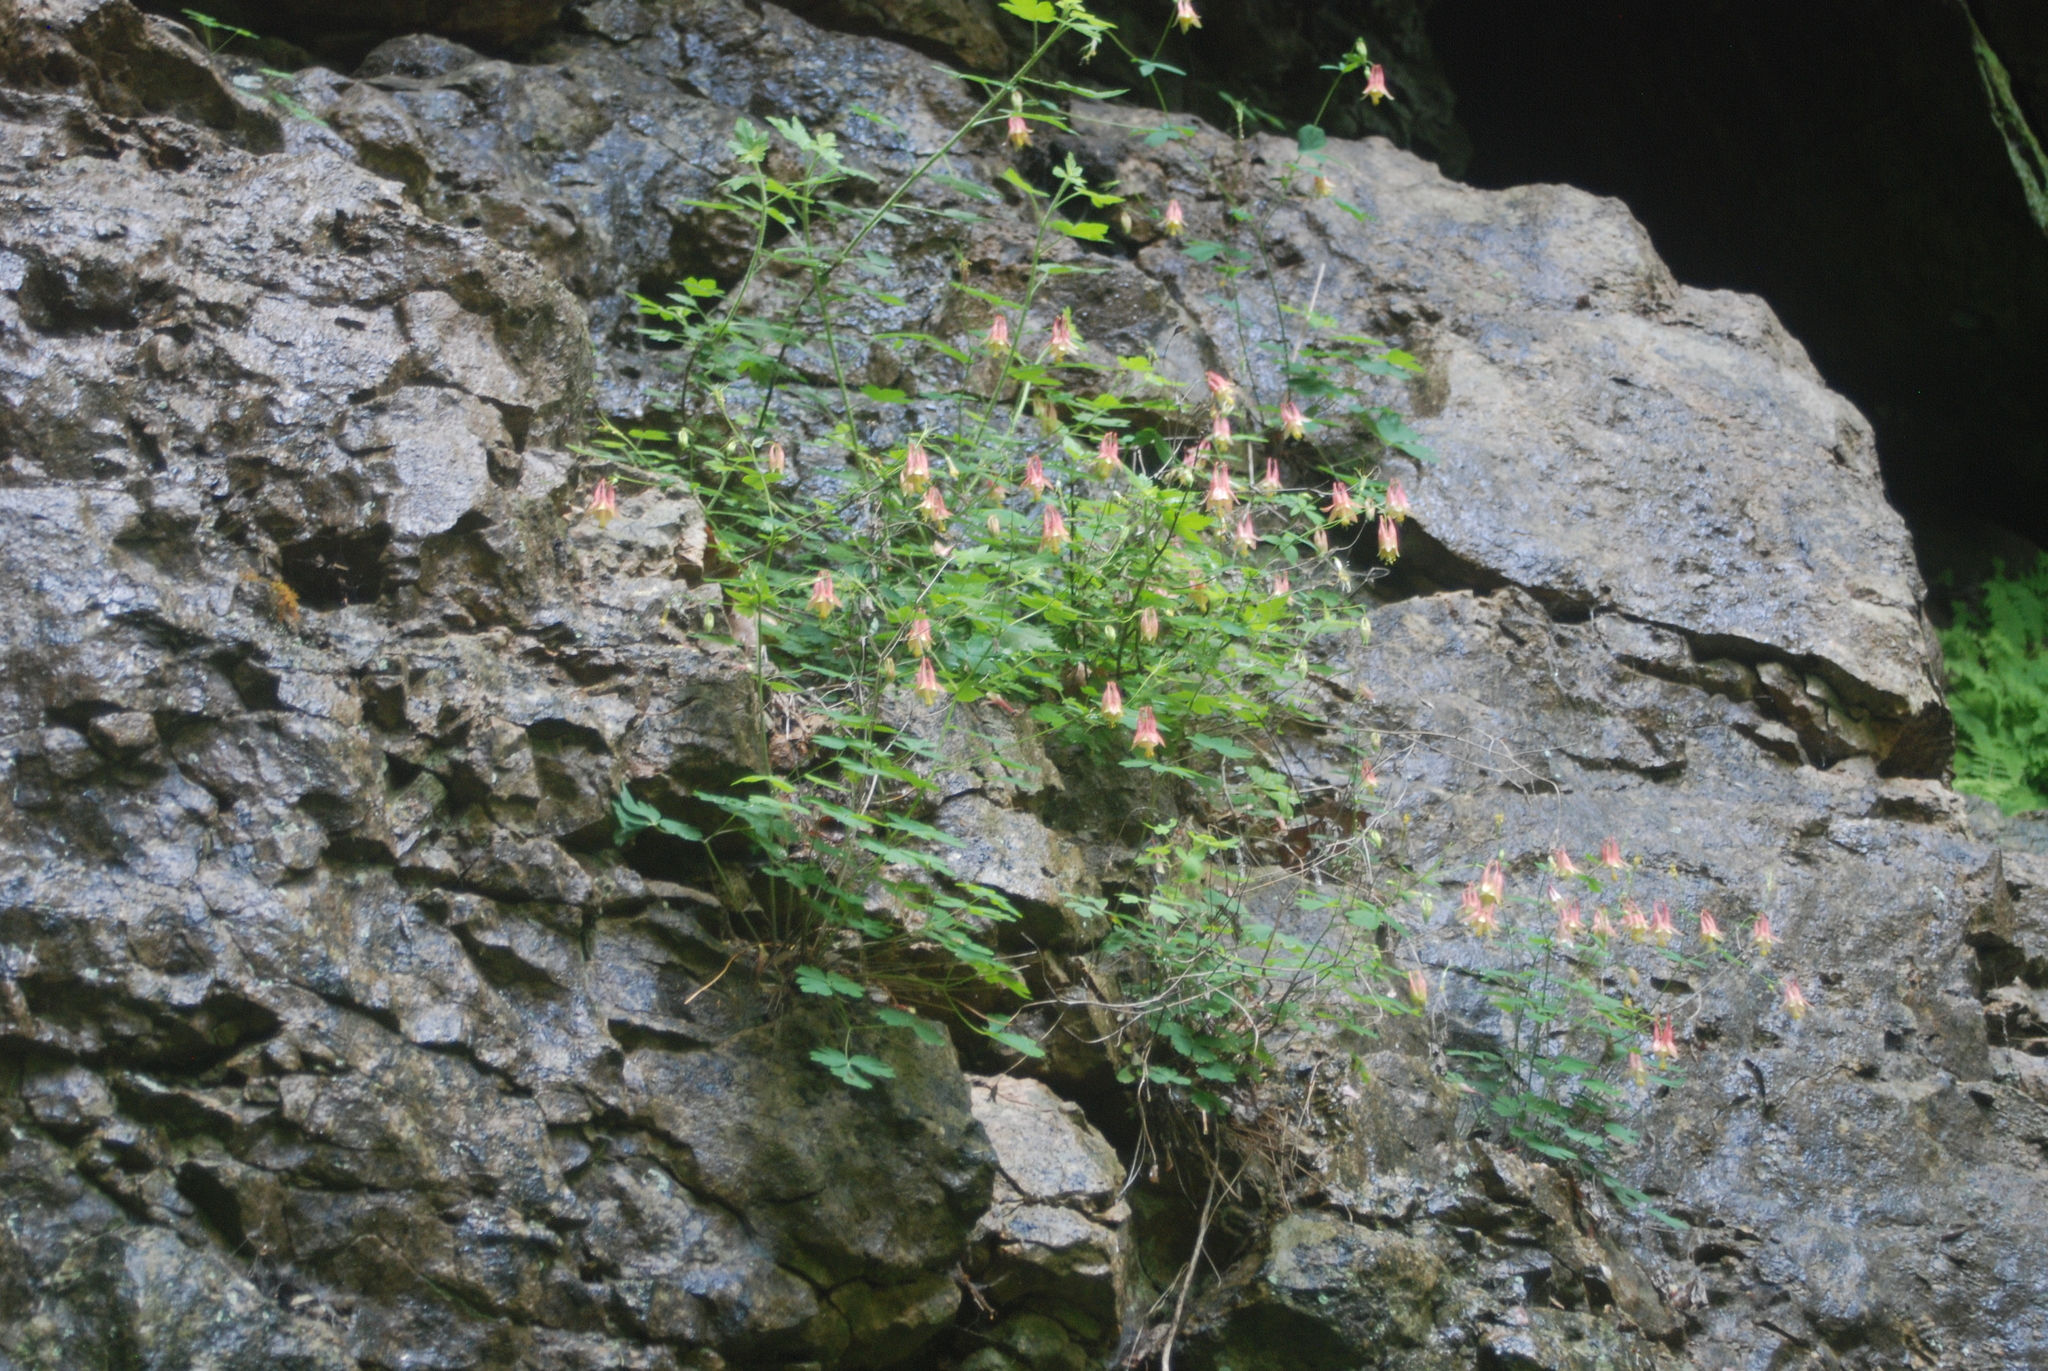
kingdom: Plantae
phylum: Tracheophyta
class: Magnoliopsida
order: Ranunculales
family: Ranunculaceae
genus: Aquilegia
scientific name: Aquilegia canadensis
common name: American columbine
